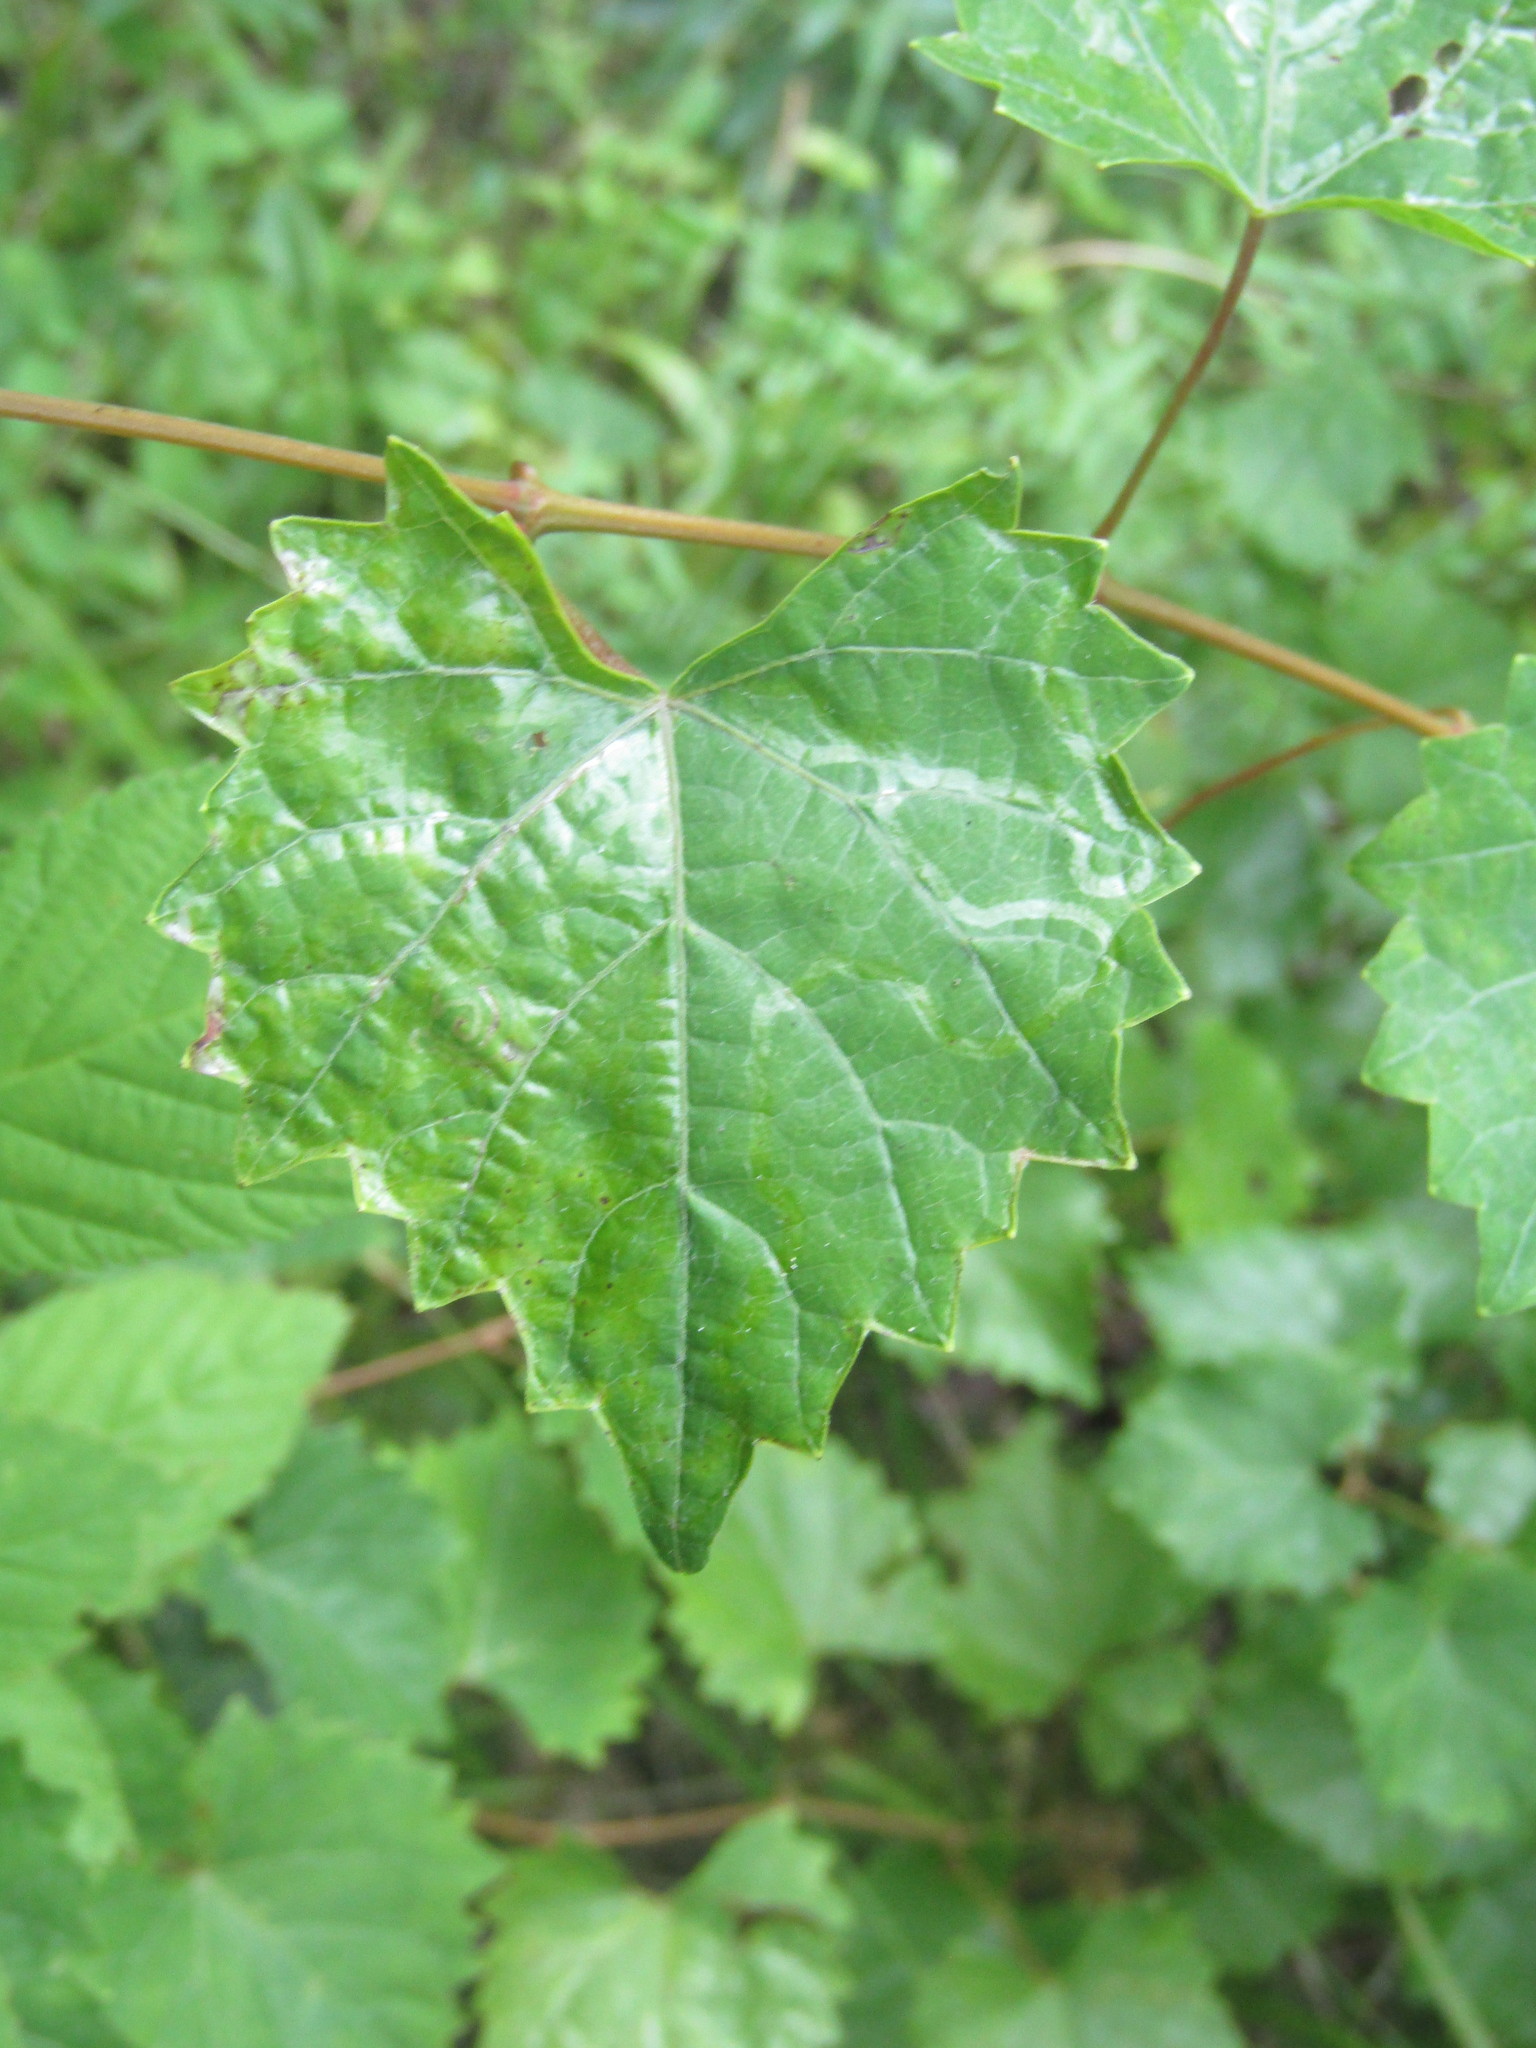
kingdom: Animalia
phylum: Arthropoda
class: Insecta
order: Lepidoptera
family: Gracillariidae
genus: Phyllocnistis
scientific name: Phyllocnistis vitegenella
